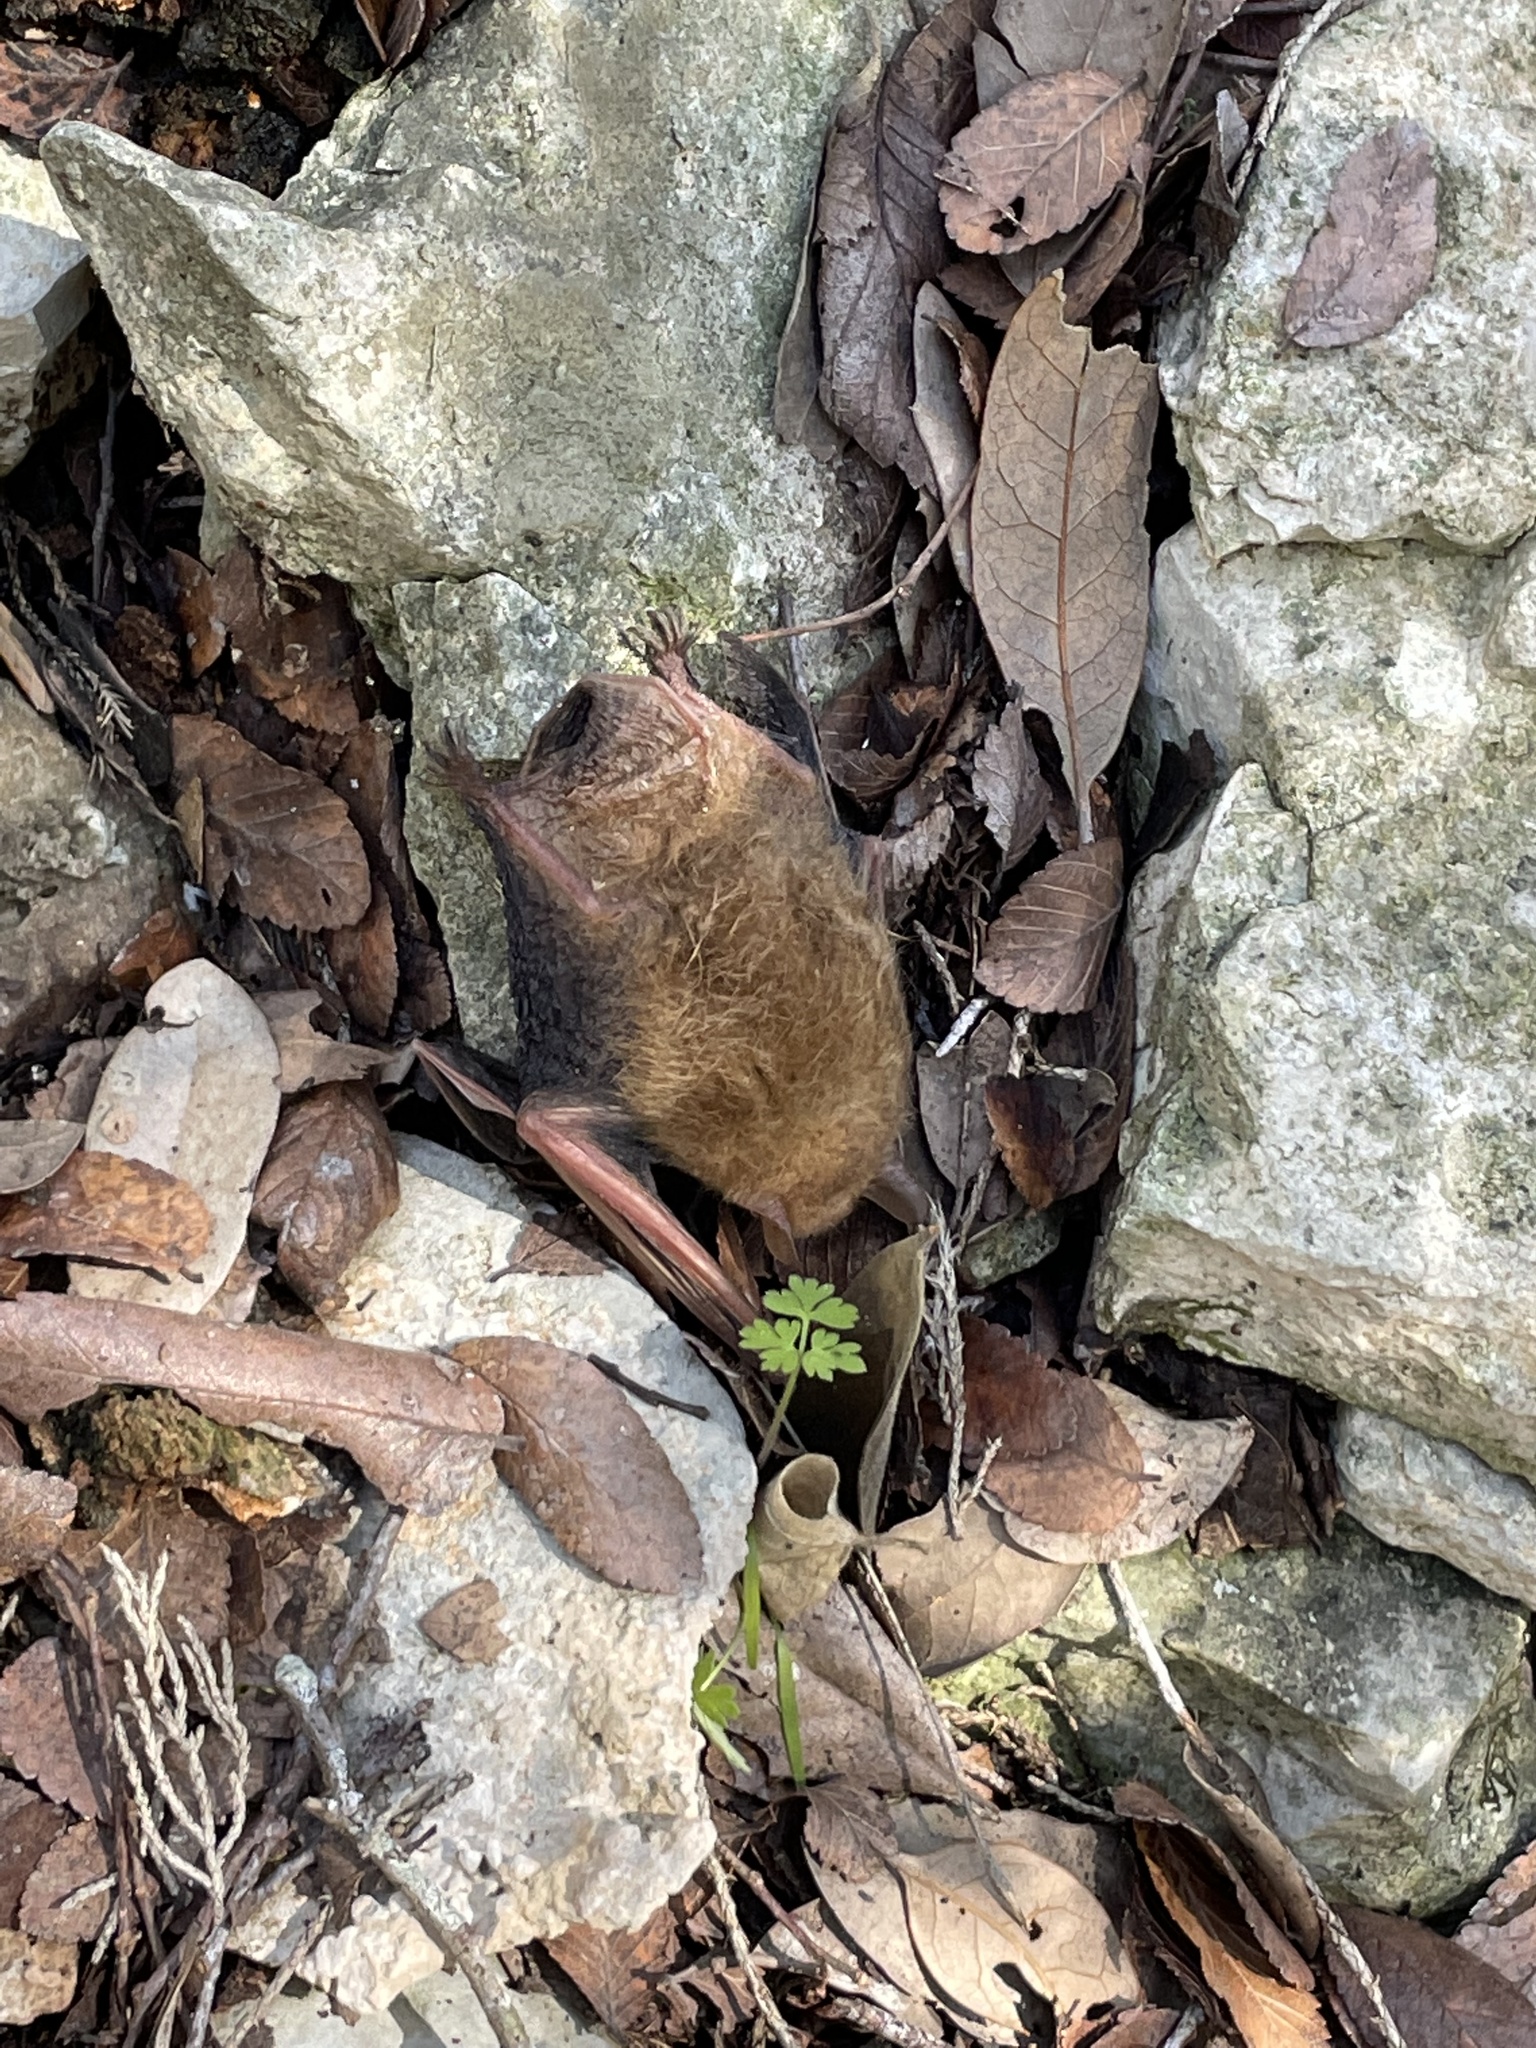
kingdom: Animalia
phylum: Chordata
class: Mammalia
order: Chiroptera
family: Vespertilionidae
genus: Perimyotis
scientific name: Perimyotis subflavus
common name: Eastern pipistrelle
